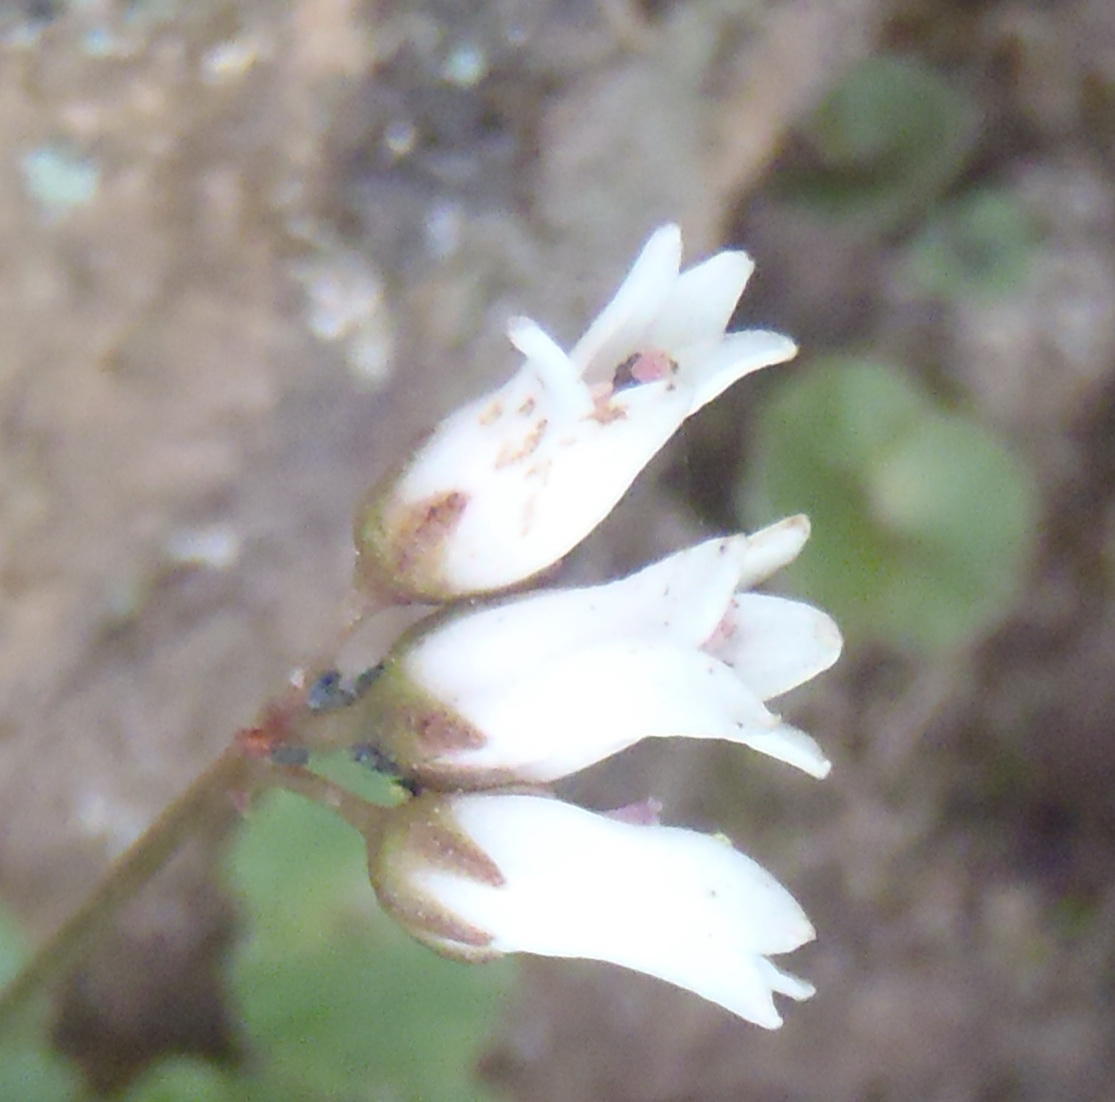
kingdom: Plantae
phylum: Tracheophyta
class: Magnoliopsida
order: Saxifragales
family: Crassulaceae
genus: Crassula
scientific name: Crassula saxifraga
